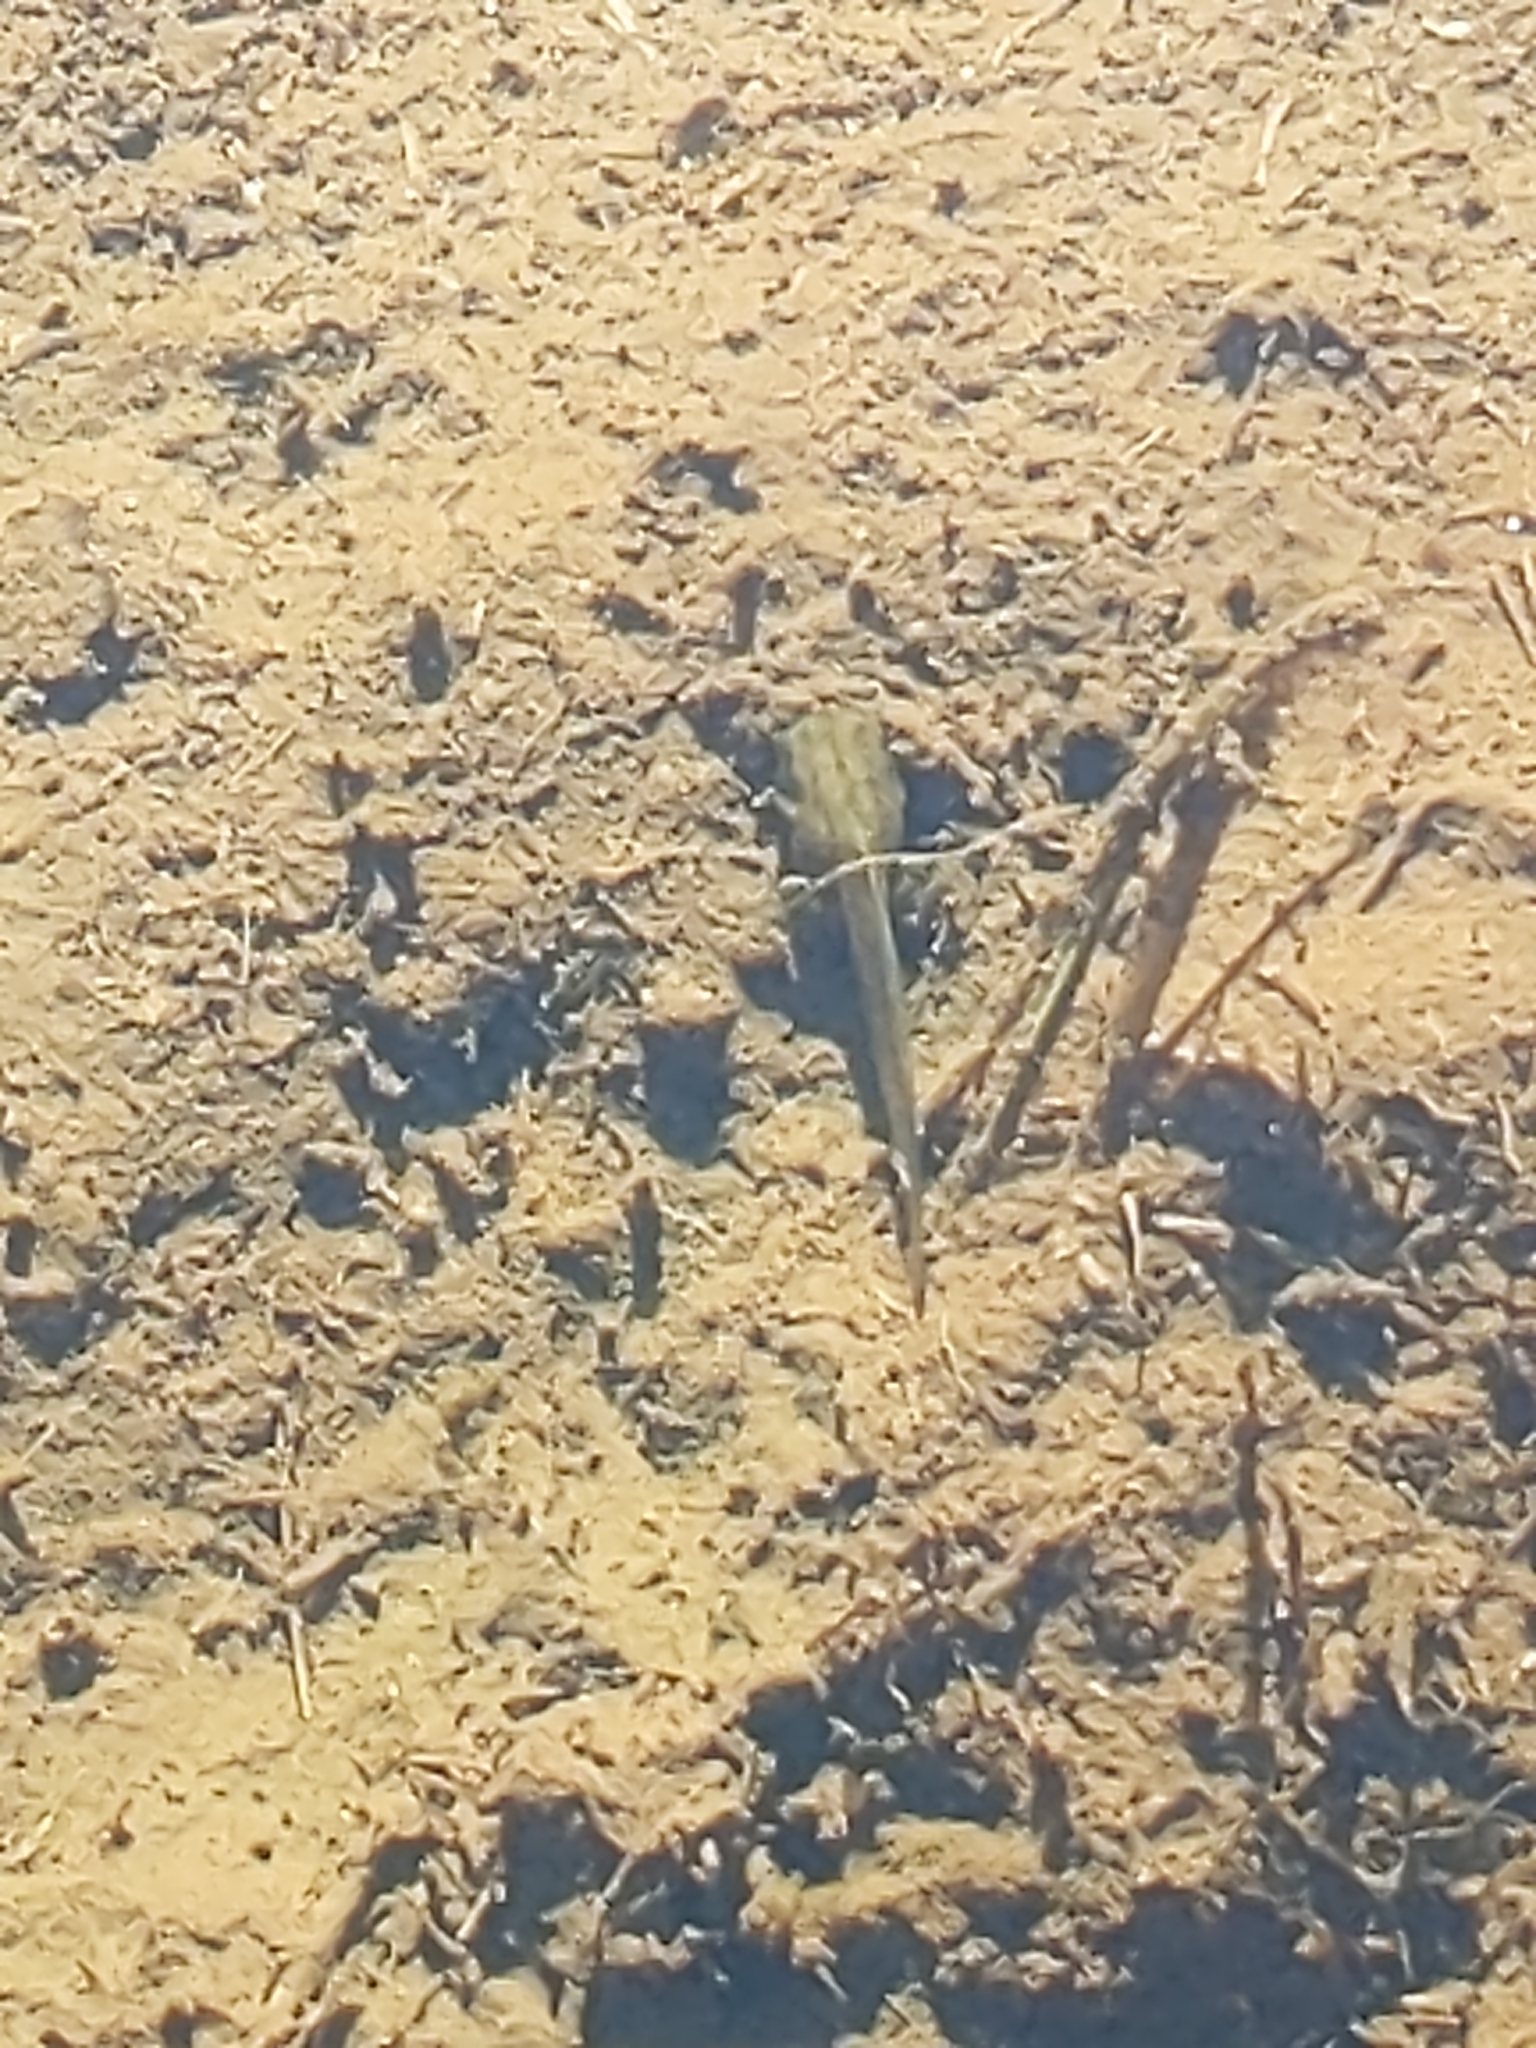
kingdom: Animalia
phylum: Chordata
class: Amphibia
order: Anura
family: Hylidae
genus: Pseudacris
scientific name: Pseudacris maculata
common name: Boreal chorus frog
